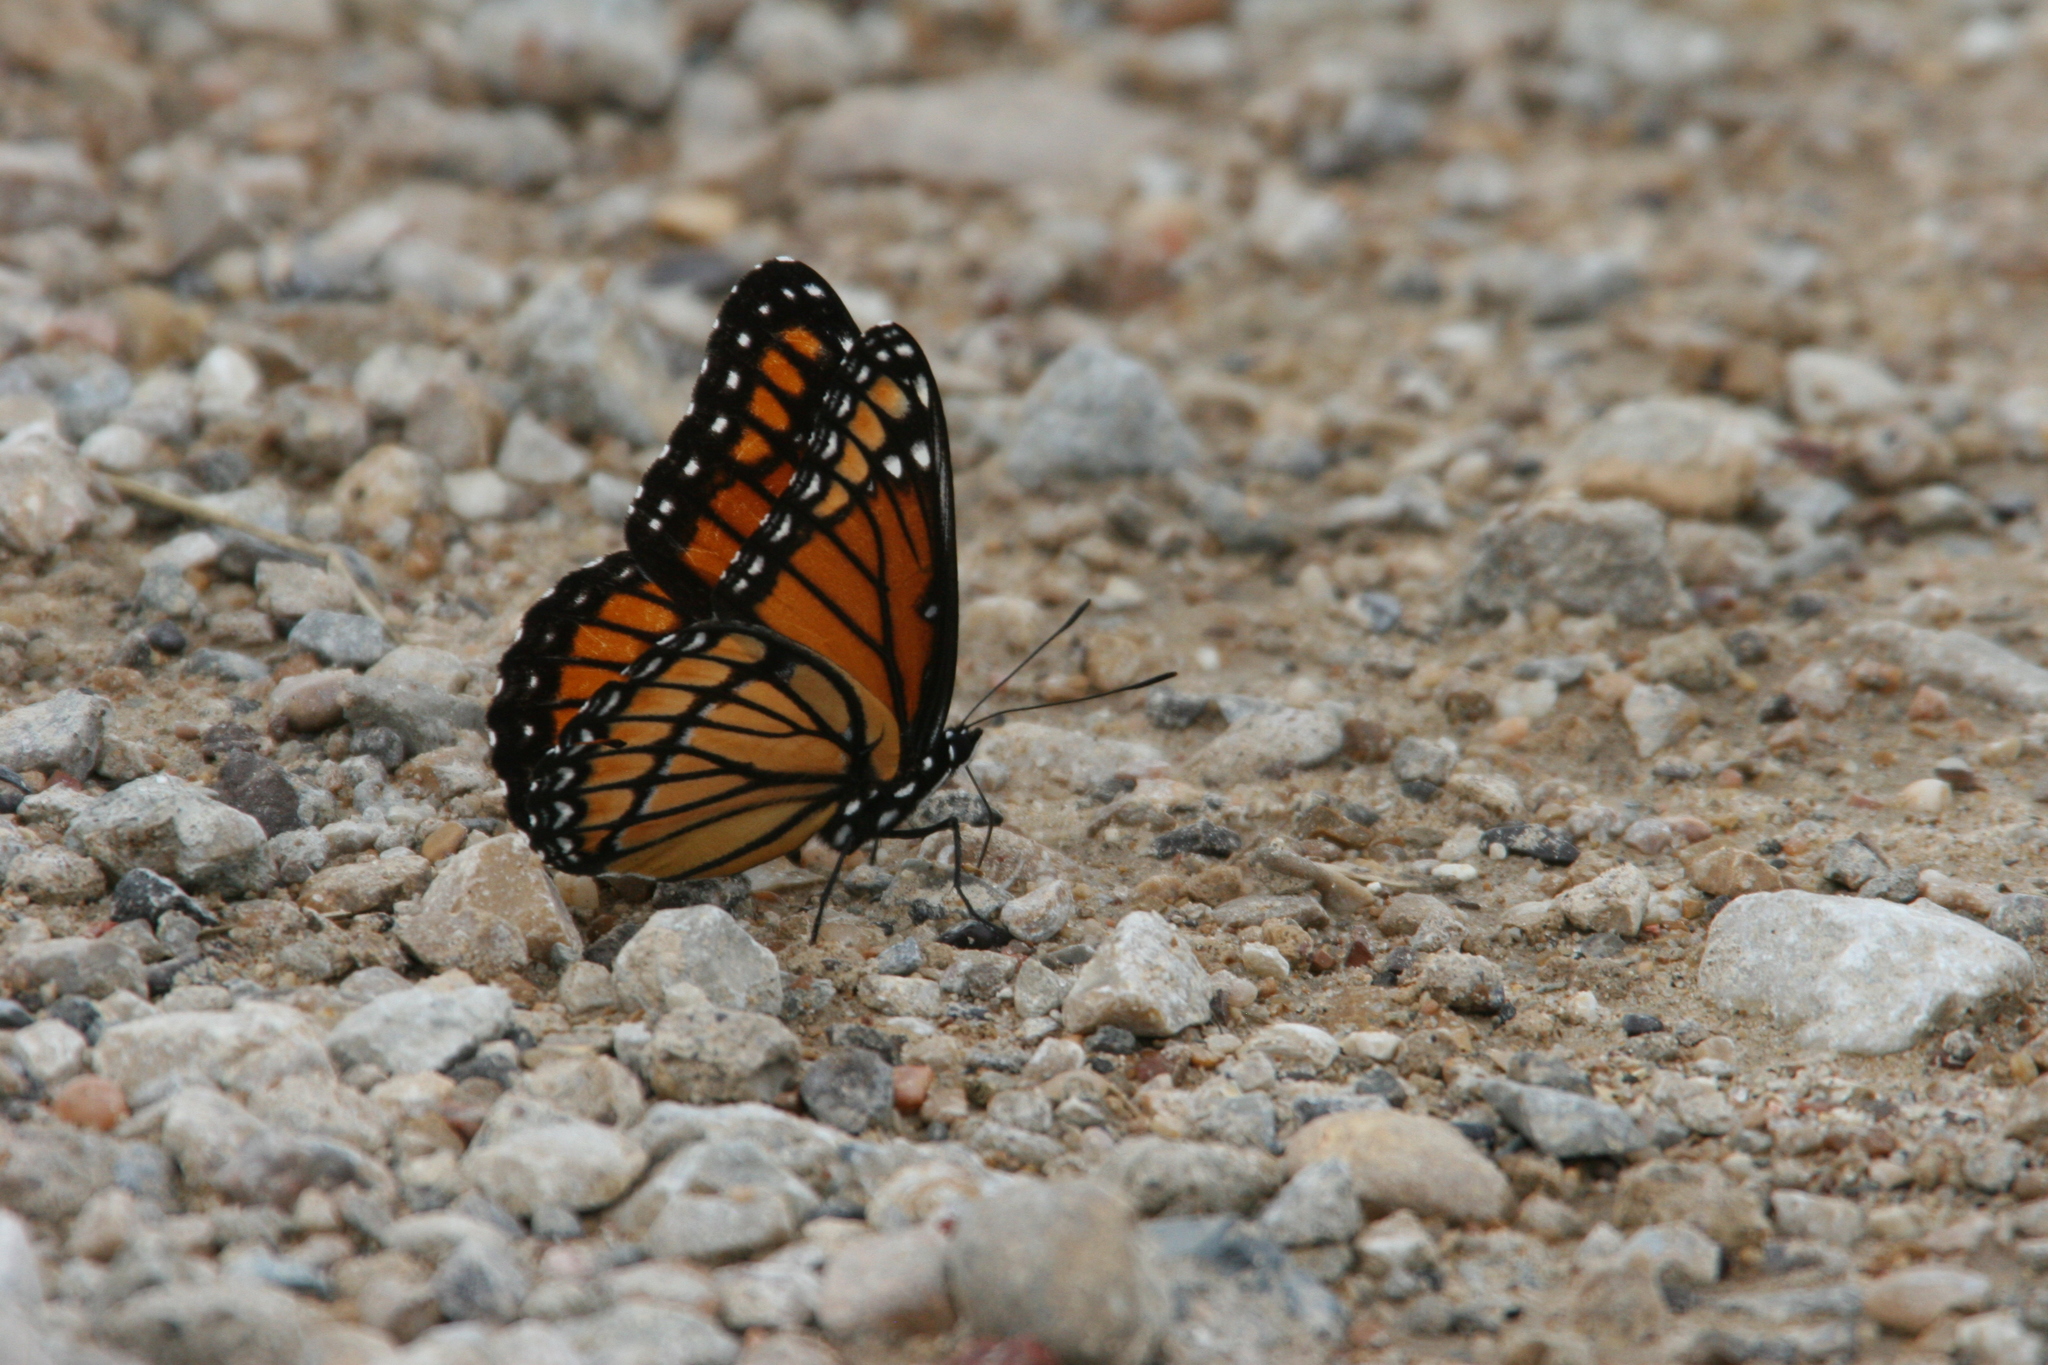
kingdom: Animalia
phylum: Arthropoda
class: Insecta
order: Lepidoptera
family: Nymphalidae
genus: Limenitis
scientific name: Limenitis archippus
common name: Viceroy
